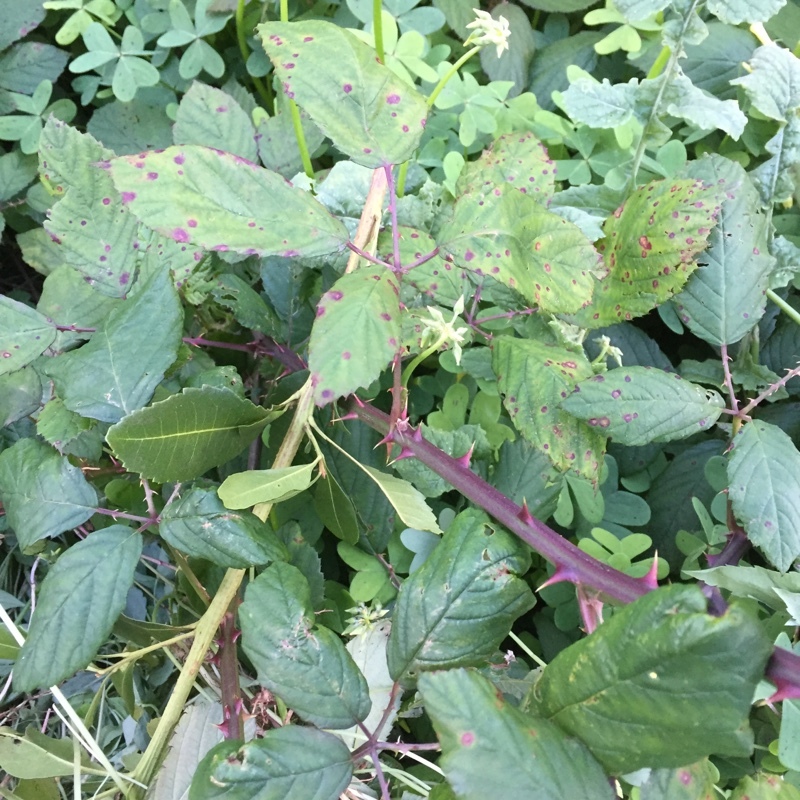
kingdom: Plantae
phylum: Tracheophyta
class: Magnoliopsida
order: Rosales
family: Rosaceae
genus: Rubus
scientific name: Rubus ulmifolius
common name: Elmleaf blackberry
